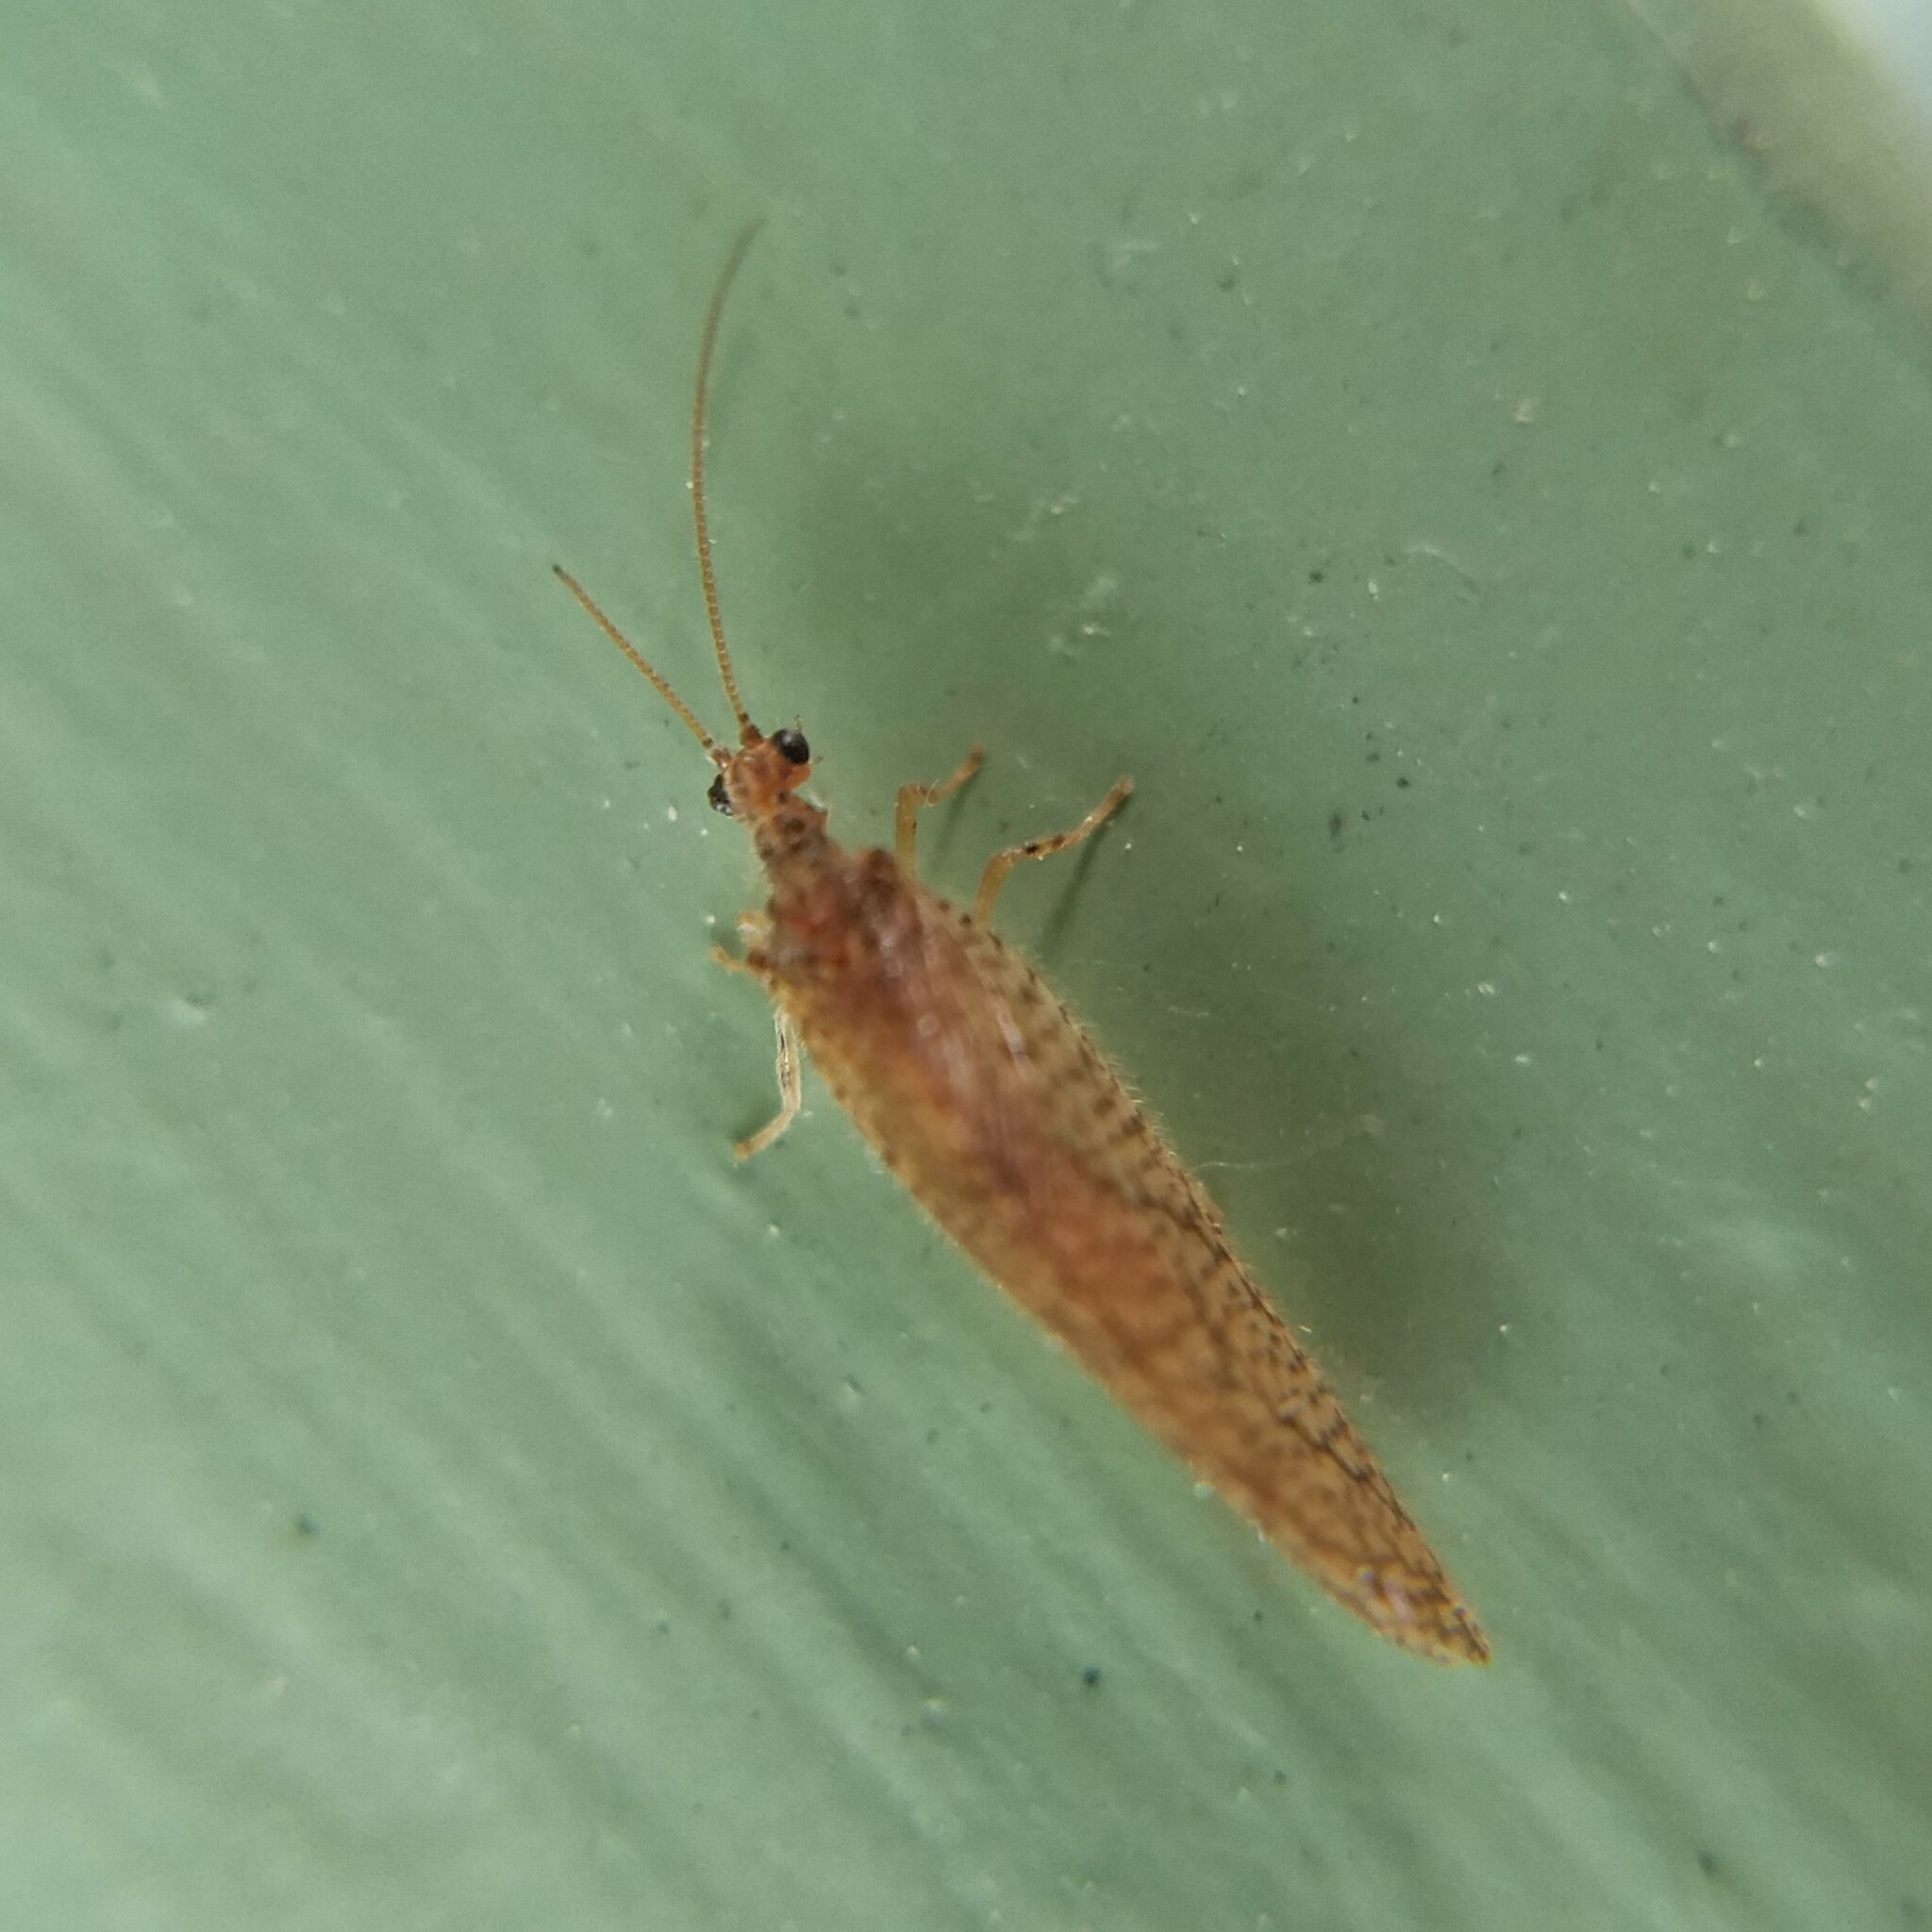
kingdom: Animalia
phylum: Arthropoda
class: Insecta
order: Neuroptera
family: Hemerobiidae
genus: Micromus
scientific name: Micromus posticus
